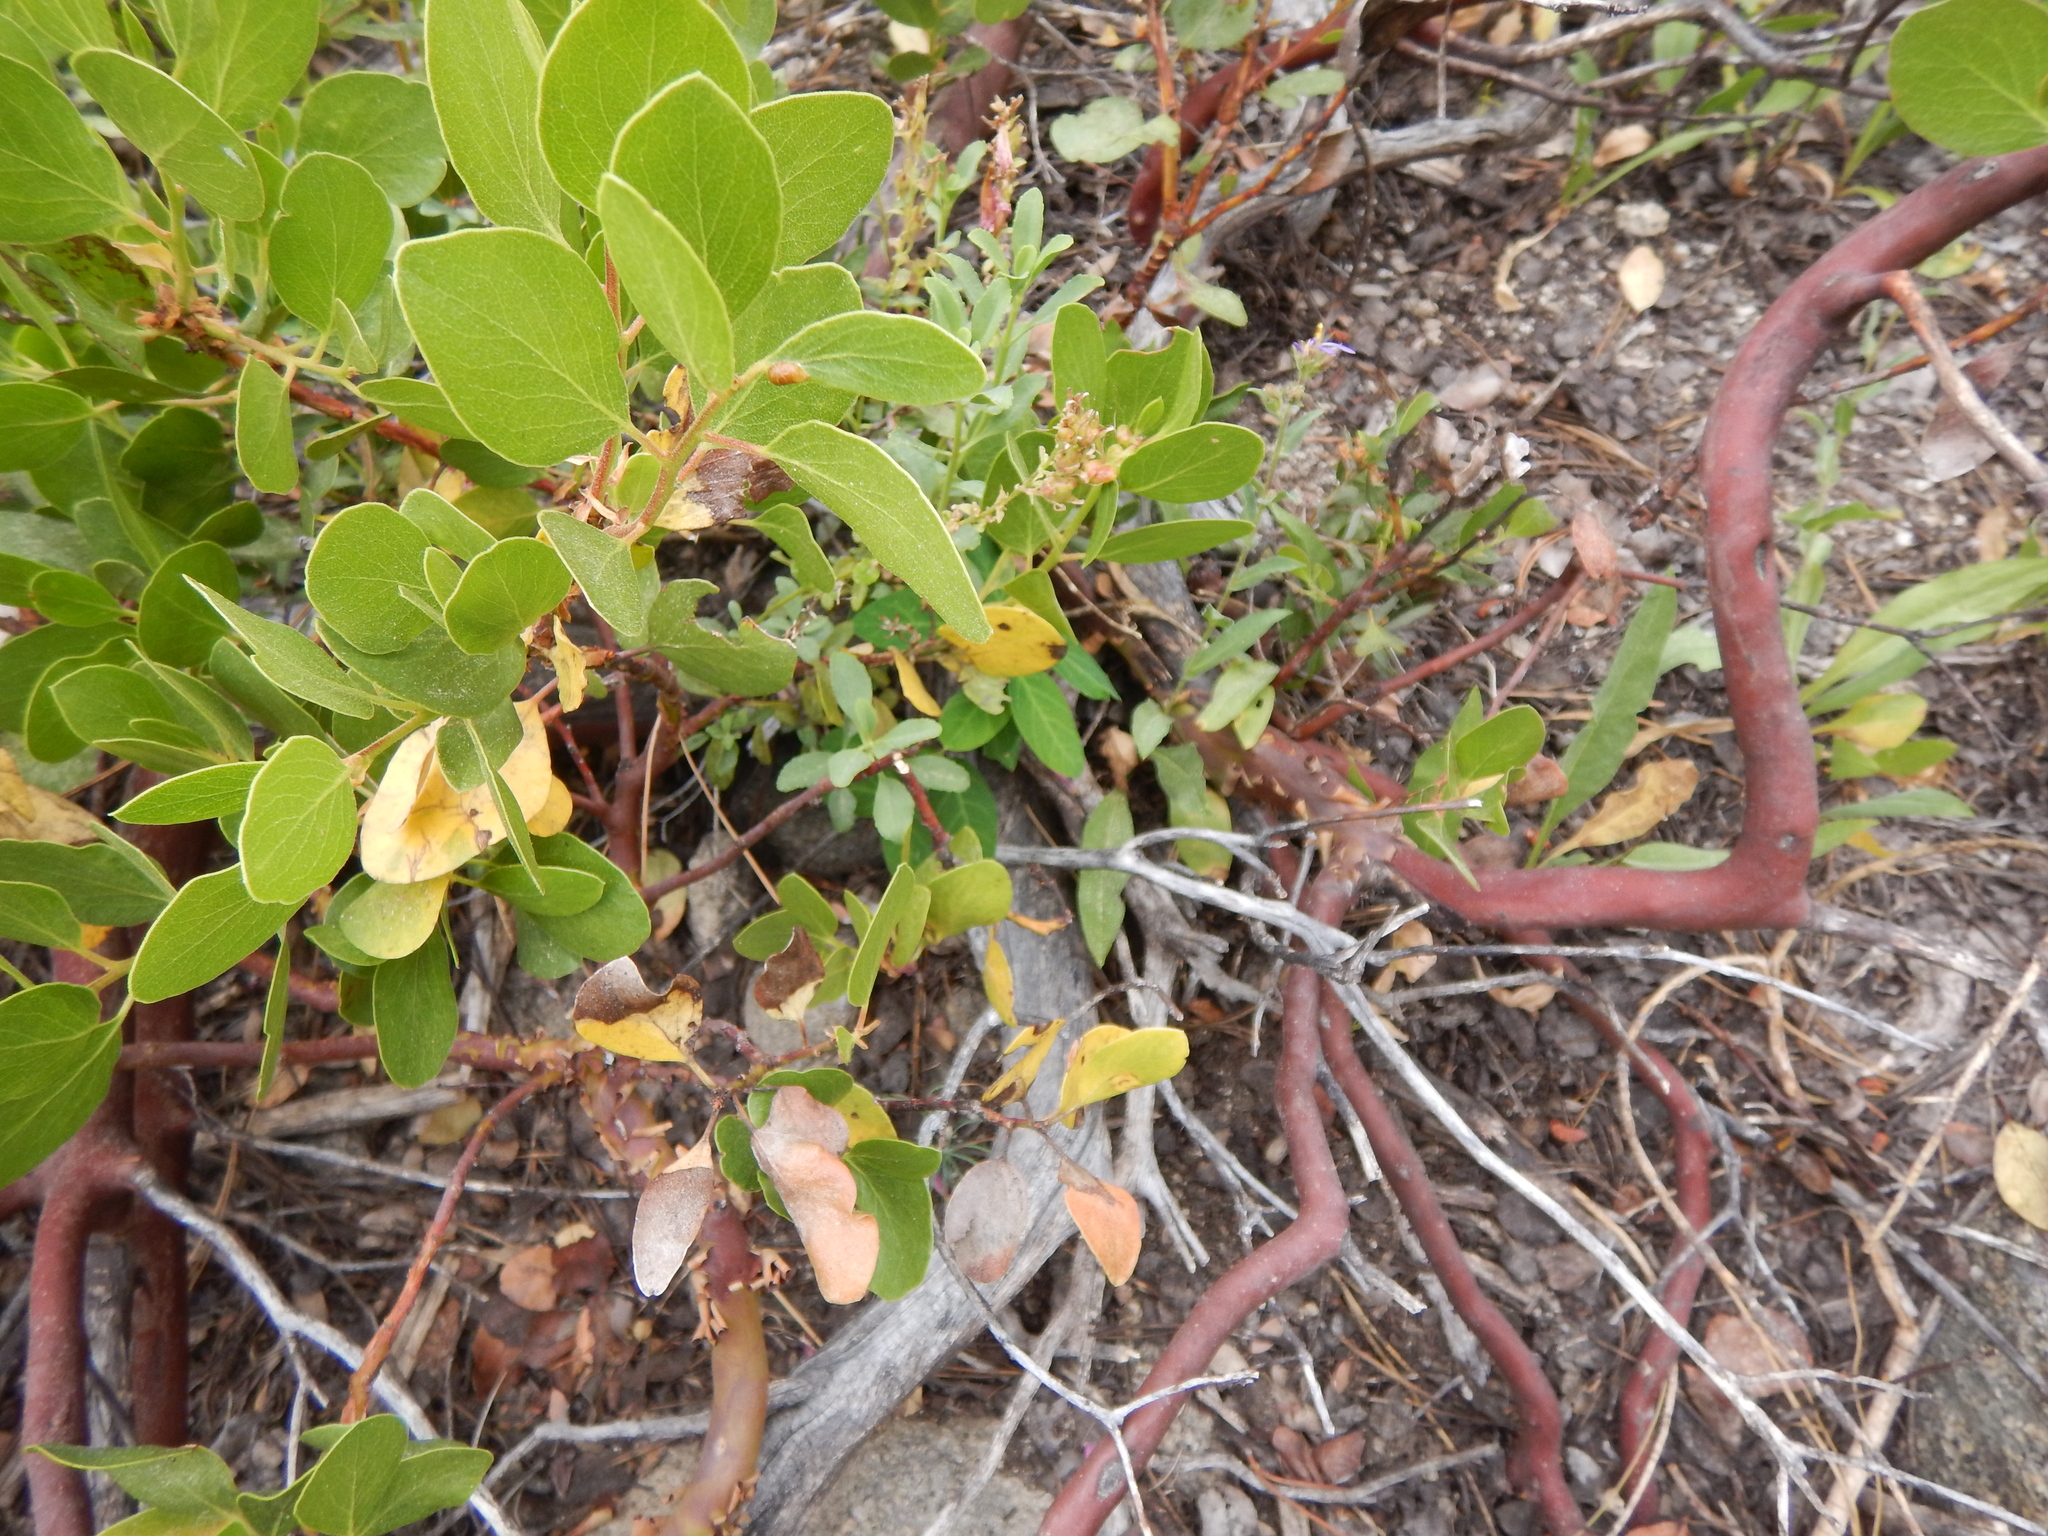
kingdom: Plantae
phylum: Tracheophyta
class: Magnoliopsida
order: Ericales
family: Ericaceae
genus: Arctostaphylos
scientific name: Arctostaphylos patula
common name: Green-leaf manzanita
